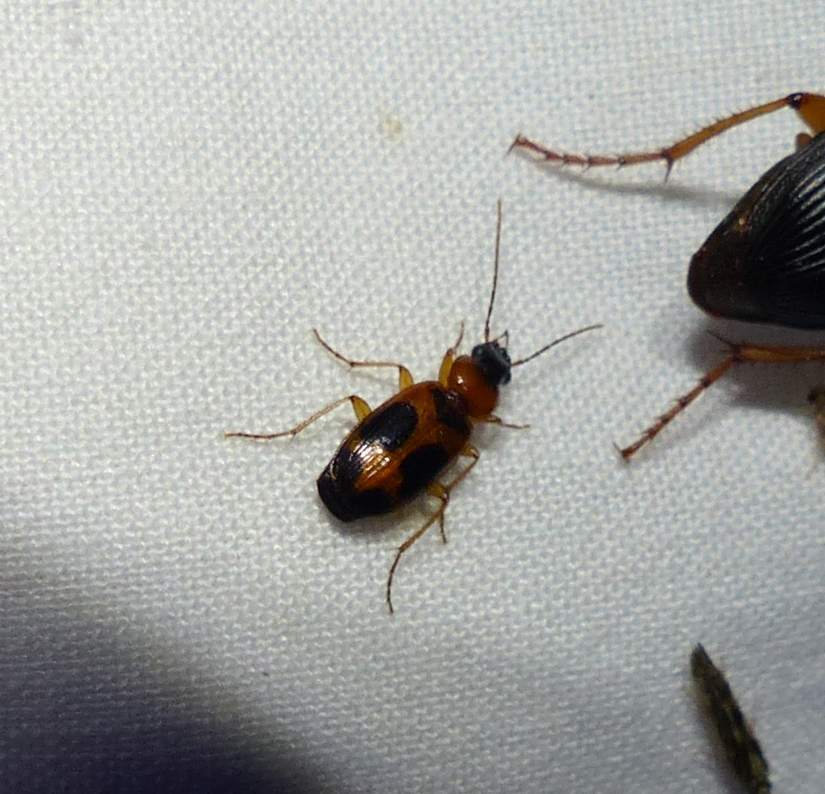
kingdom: Animalia
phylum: Arthropoda
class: Insecta
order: Coleoptera
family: Carabidae
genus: Badister
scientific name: Badister neopulchellus
